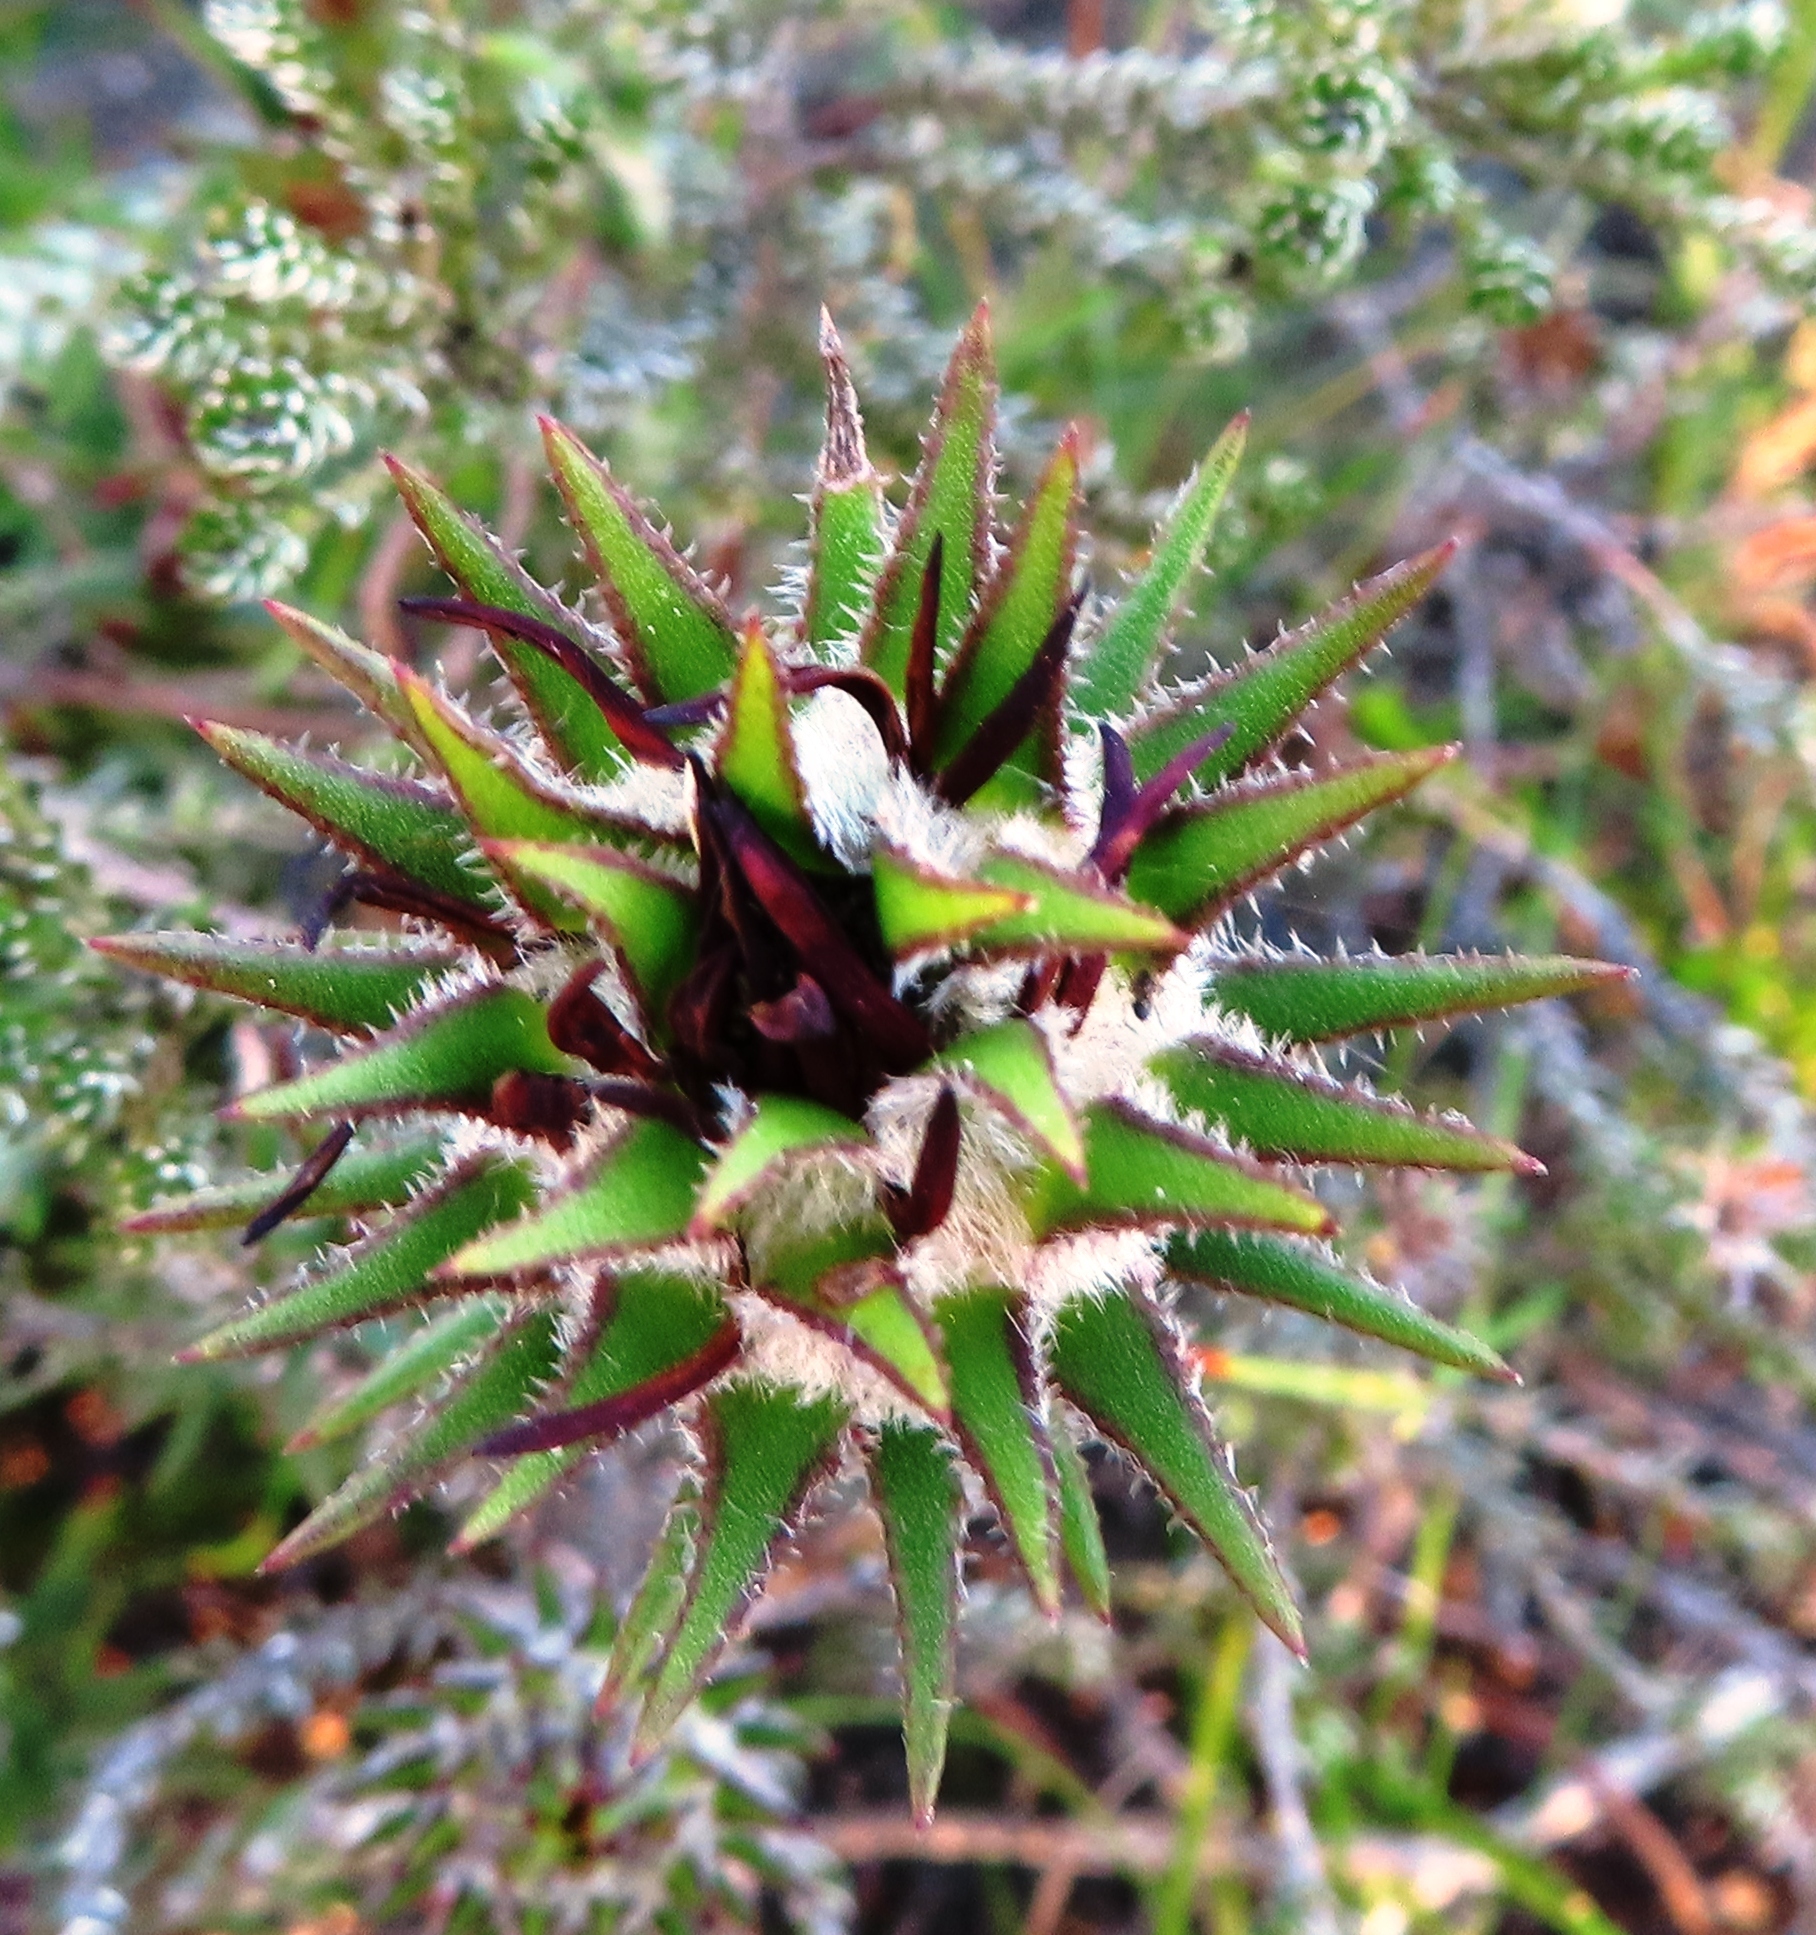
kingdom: Plantae
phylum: Tracheophyta
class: Magnoliopsida
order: Asterales
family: Asteraceae
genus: Oedera
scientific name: Oedera capensis
